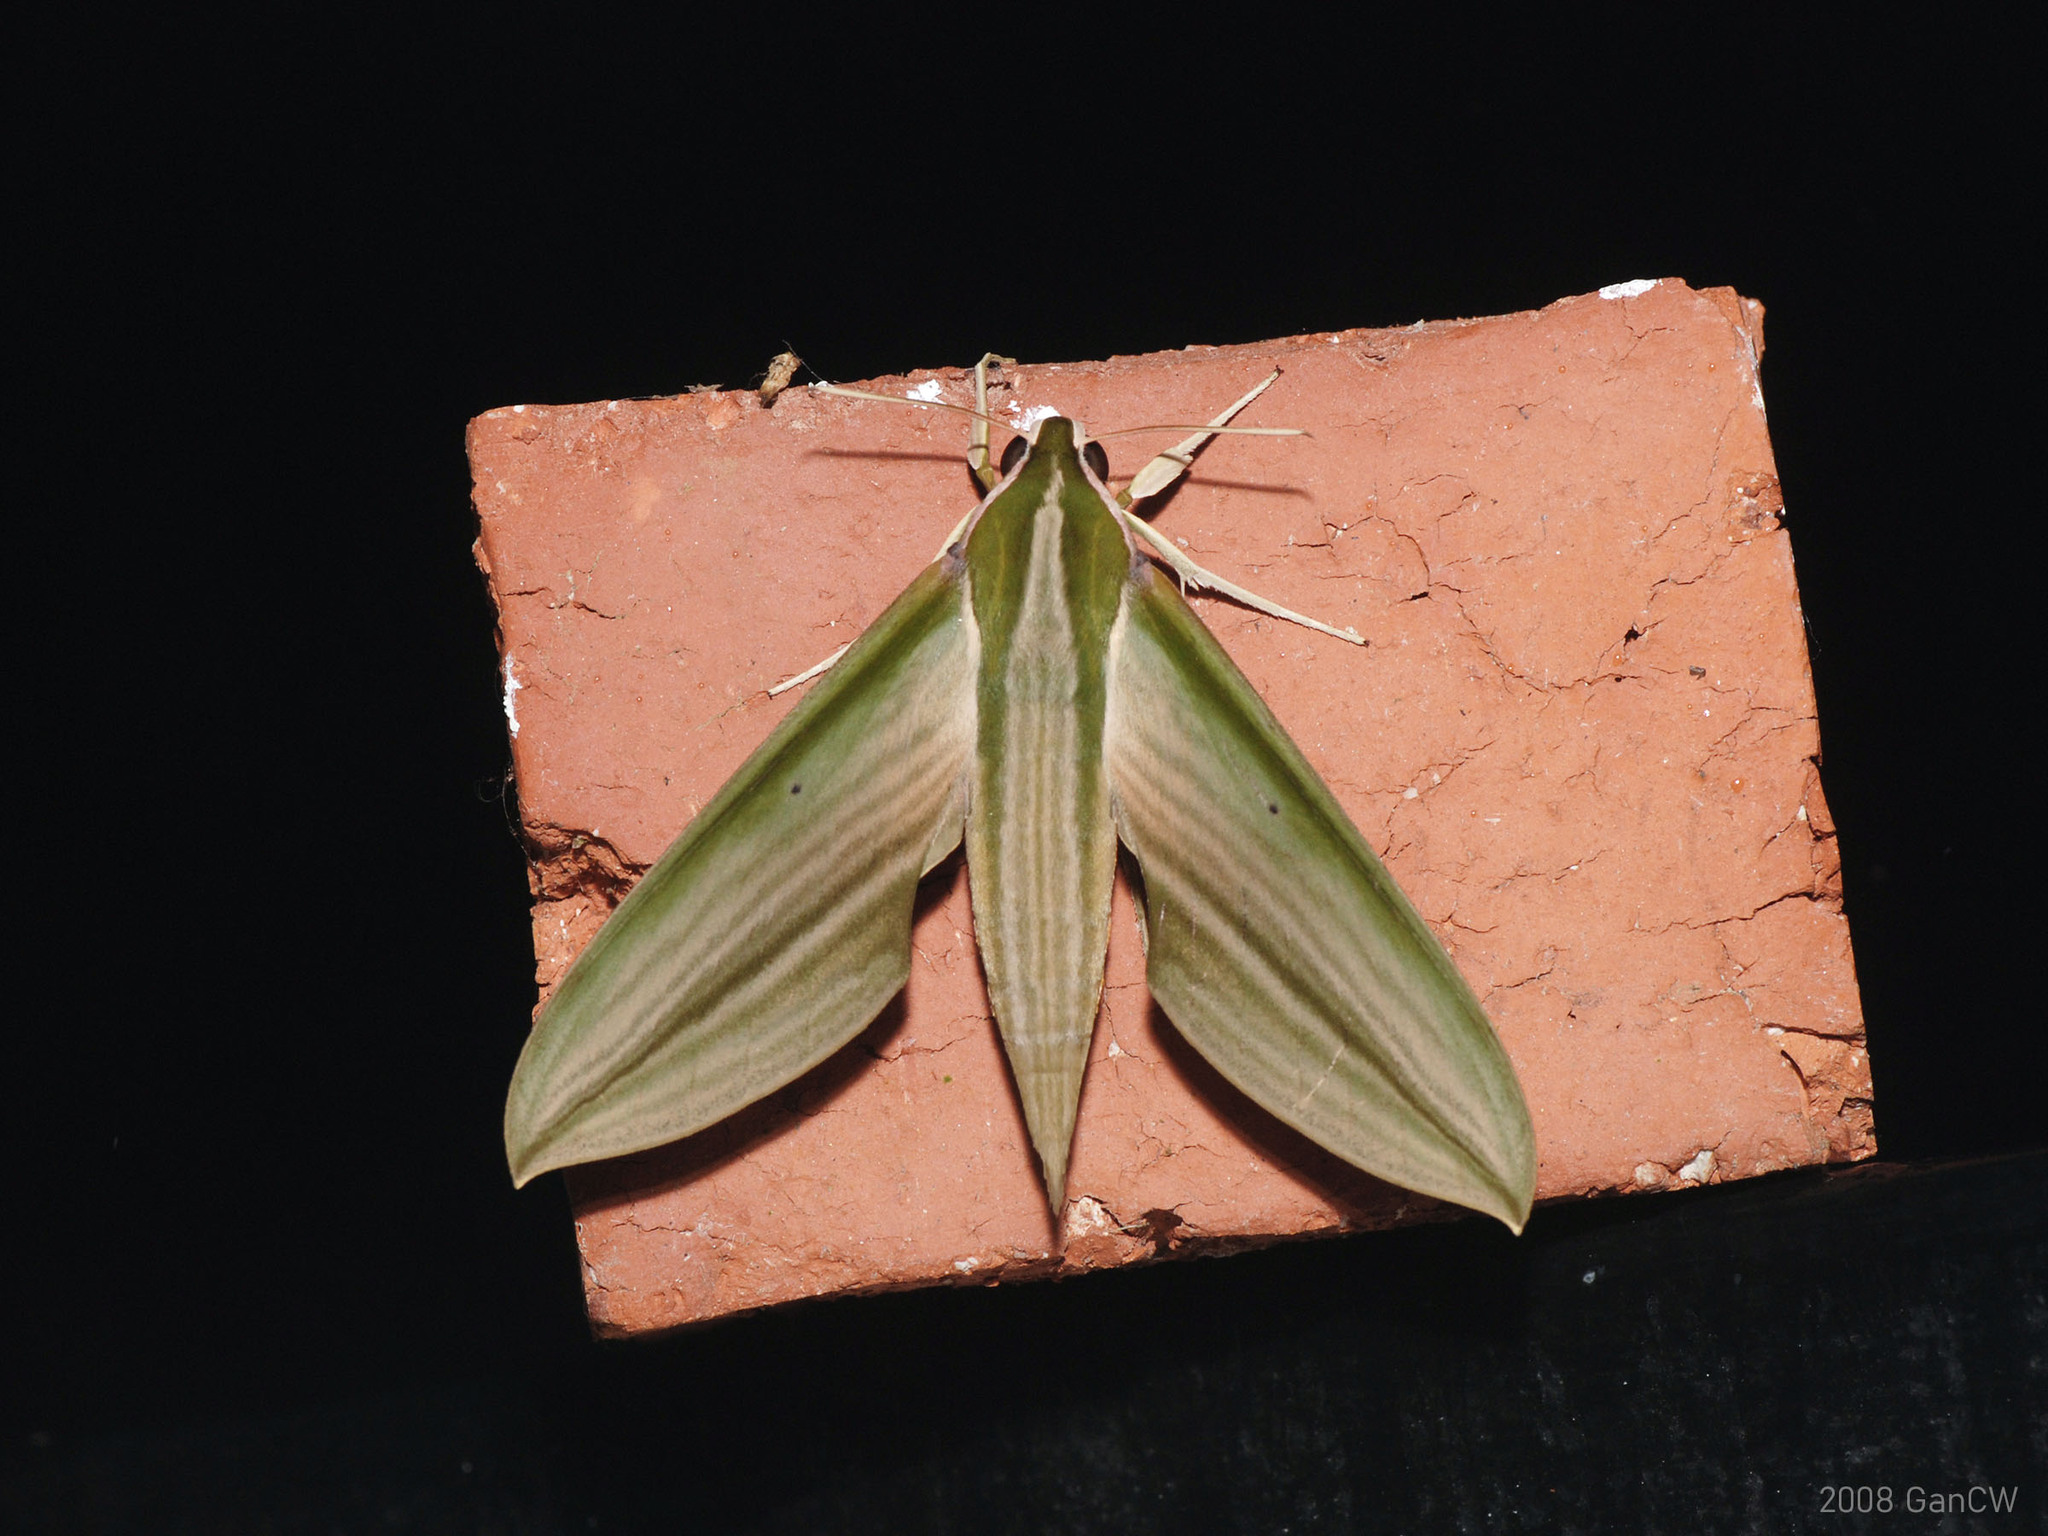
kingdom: Animalia
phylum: Arthropoda
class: Insecta
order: Lepidoptera
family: Sphingidae
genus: Cechetra
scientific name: Cechetra lineosa
